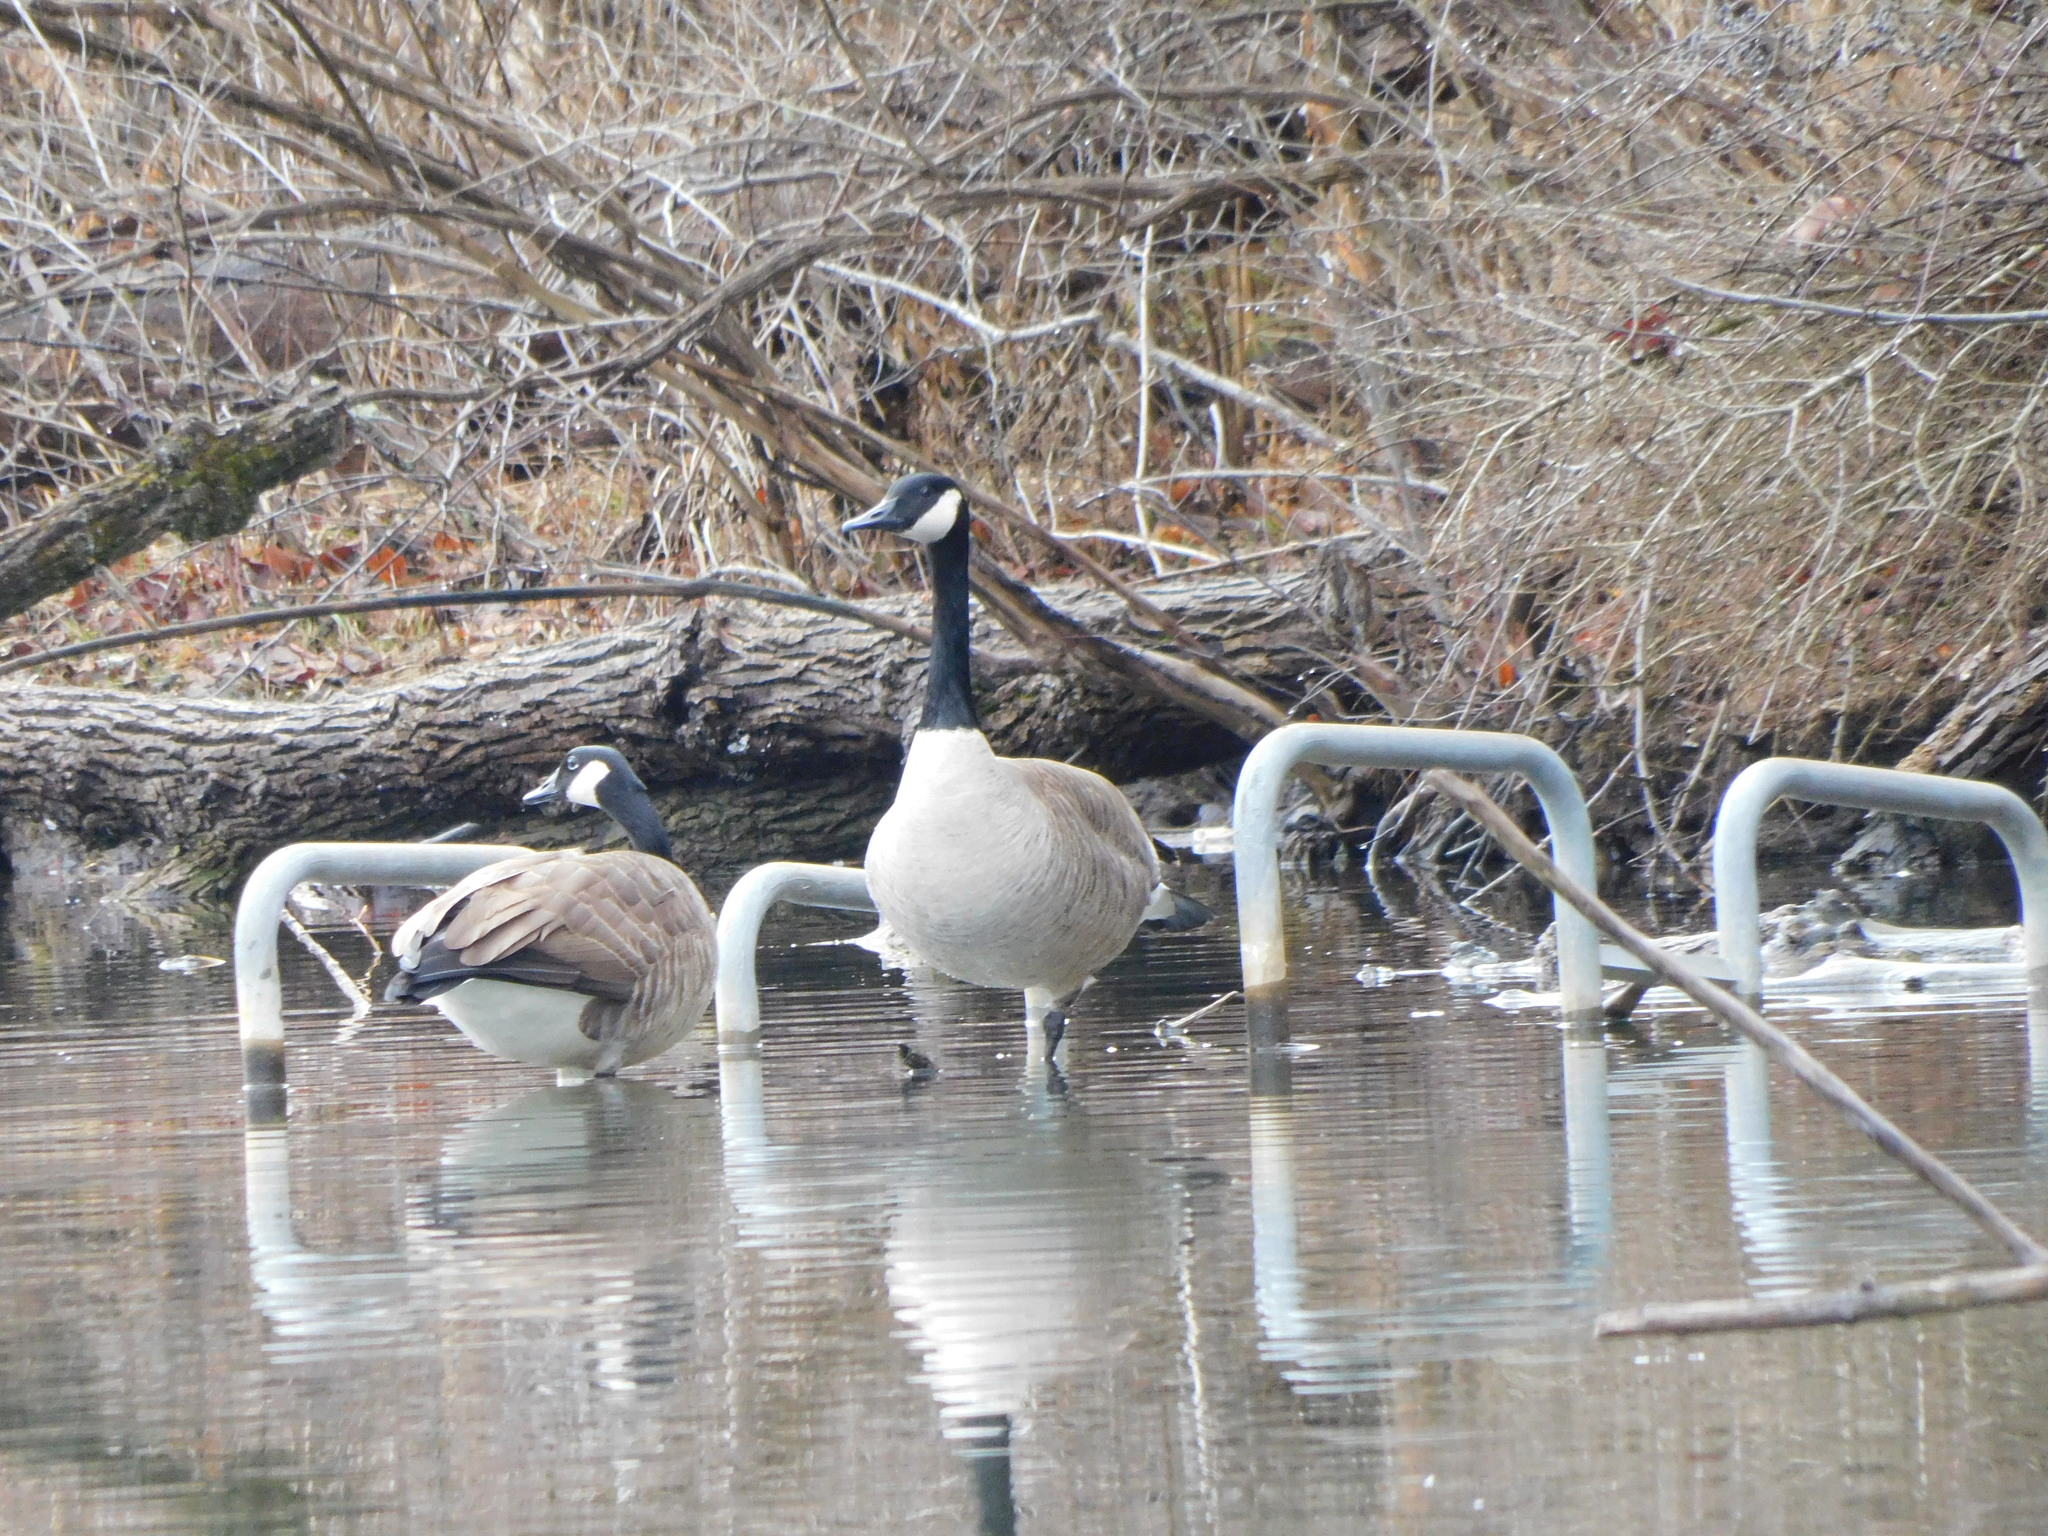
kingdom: Animalia
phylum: Chordata
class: Aves
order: Anseriformes
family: Anatidae
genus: Branta
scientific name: Branta canadensis
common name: Canada goose
